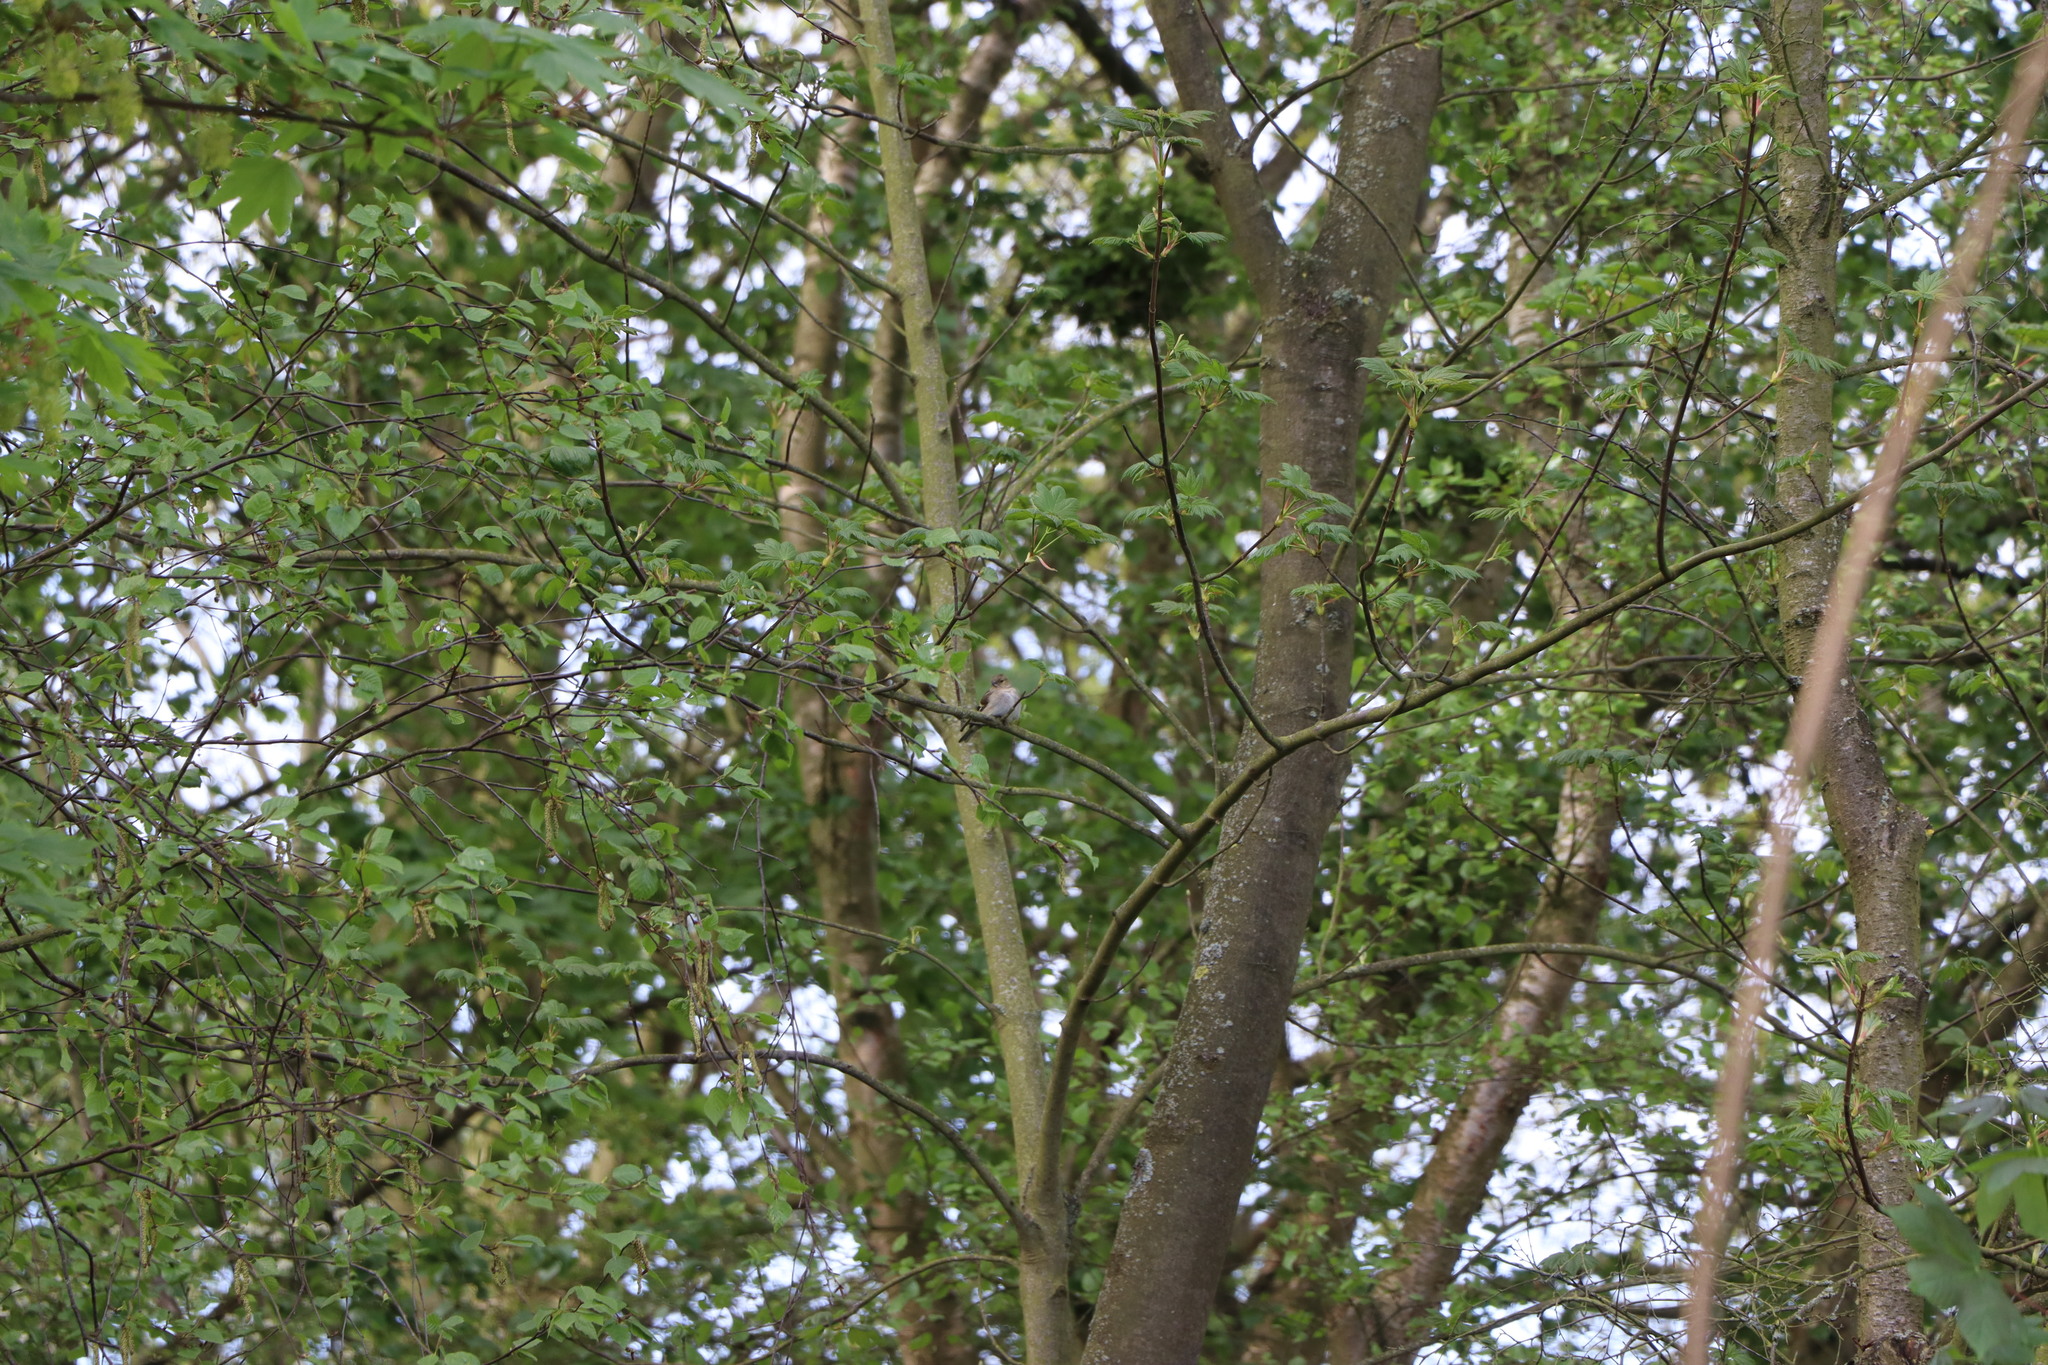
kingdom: Animalia
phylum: Chordata
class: Aves
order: Passeriformes
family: Fringillidae
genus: Fringilla
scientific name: Fringilla coelebs
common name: Common chaffinch
